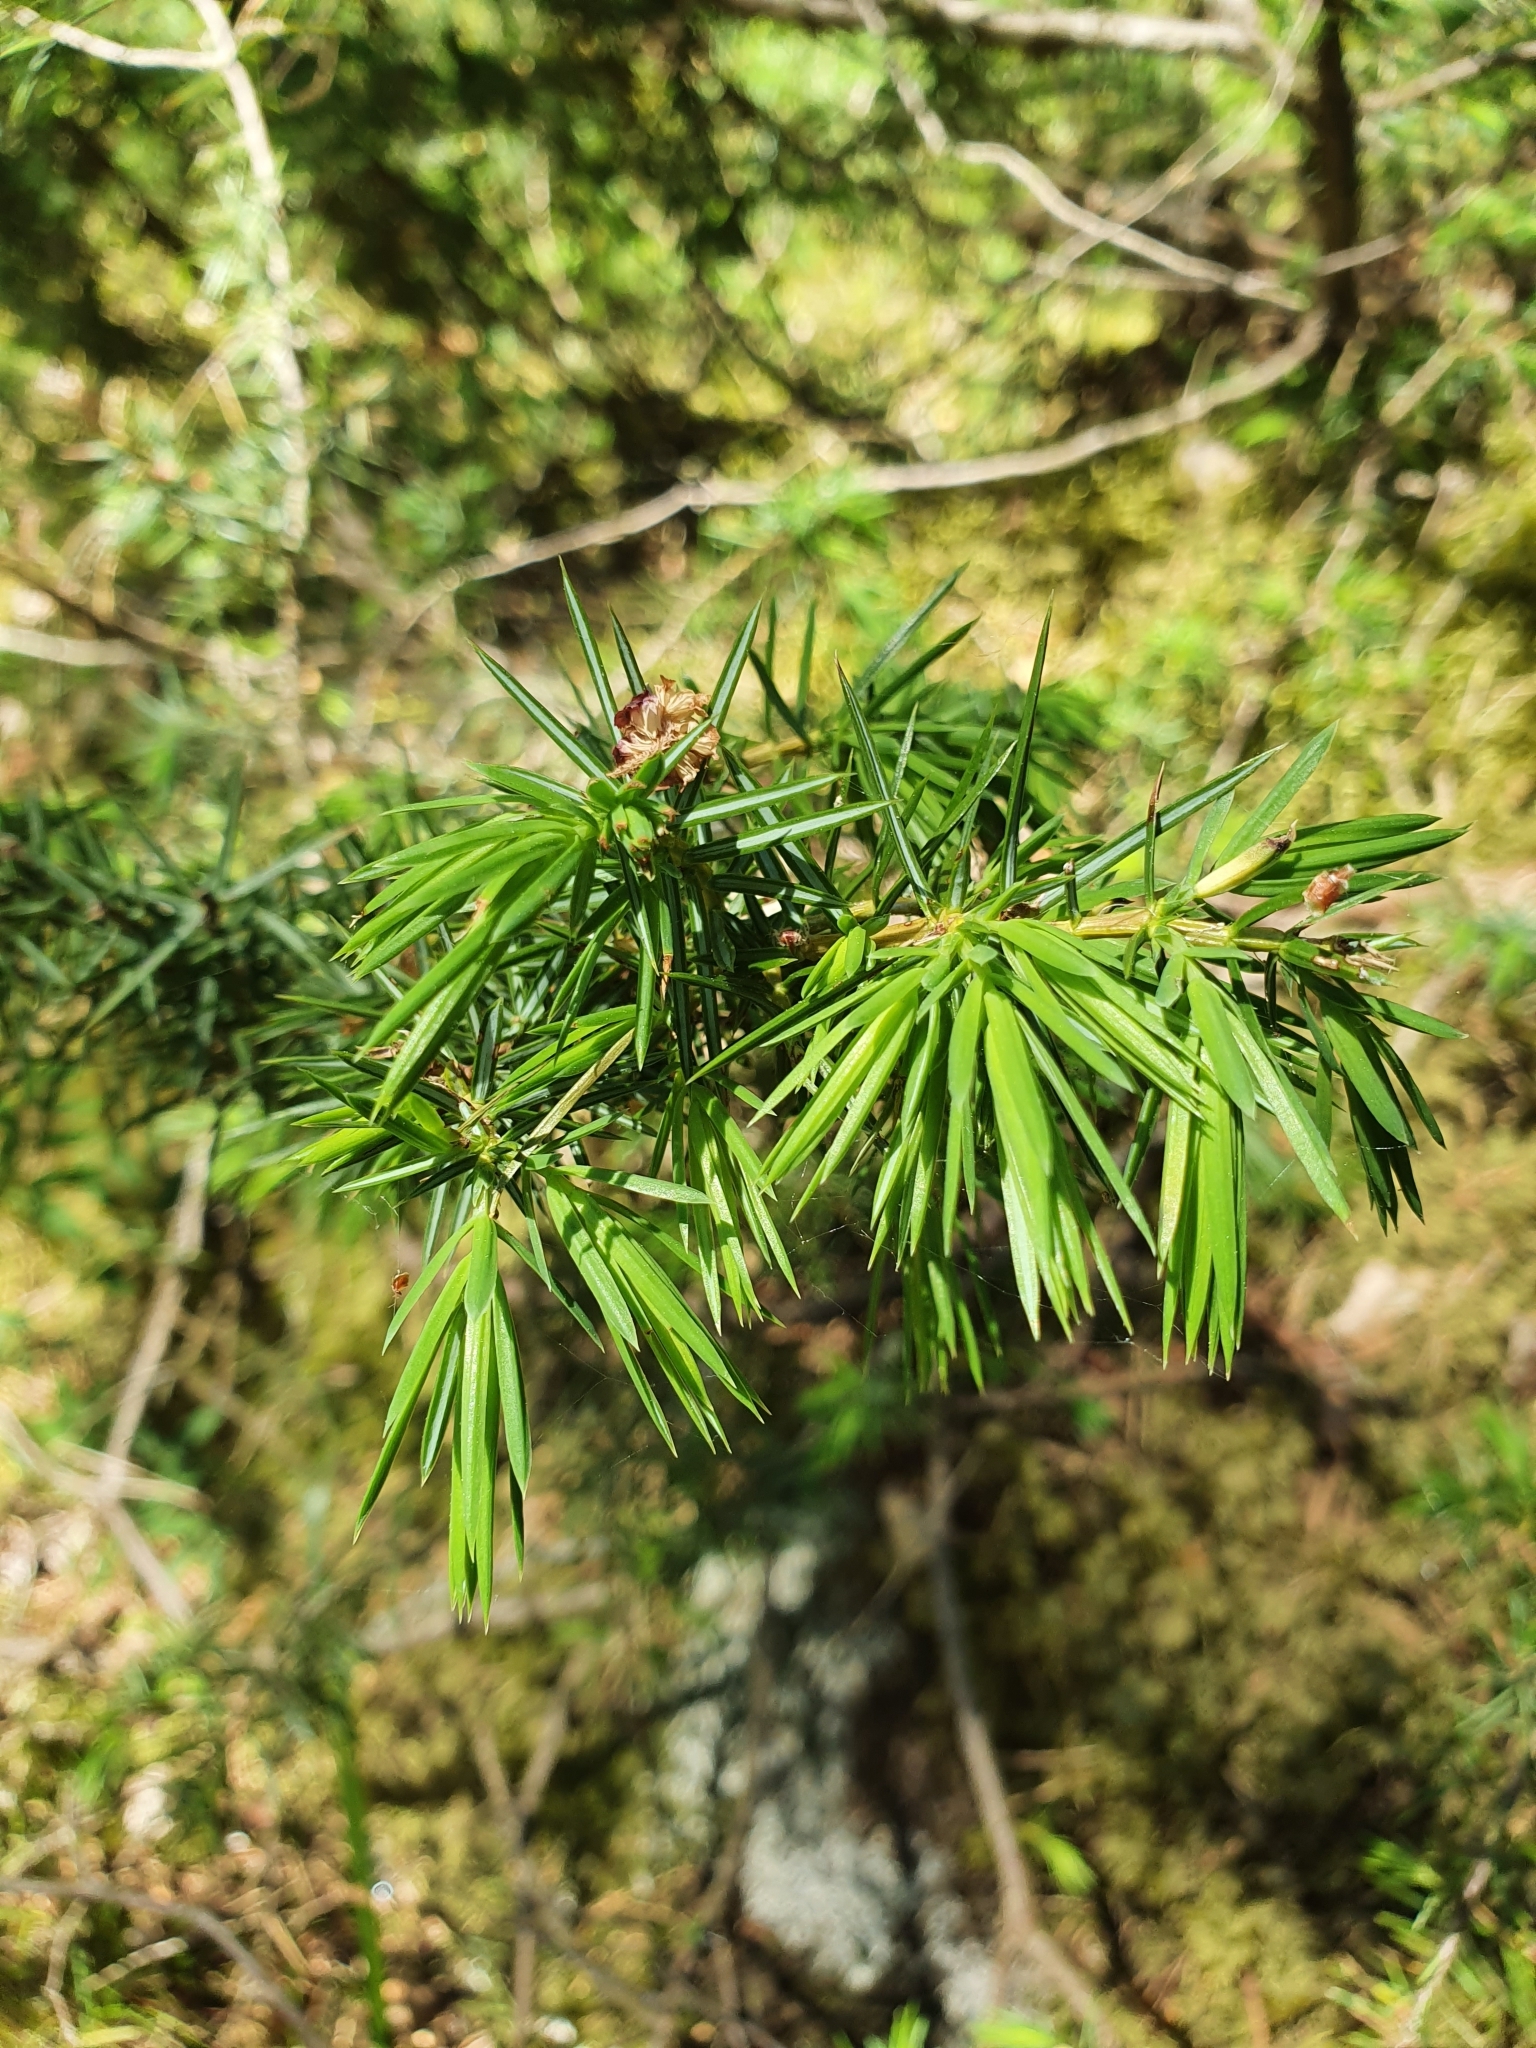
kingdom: Plantae
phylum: Tracheophyta
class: Pinopsida
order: Pinales
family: Cupressaceae
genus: Juniperus
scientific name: Juniperus communis
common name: Common juniper
